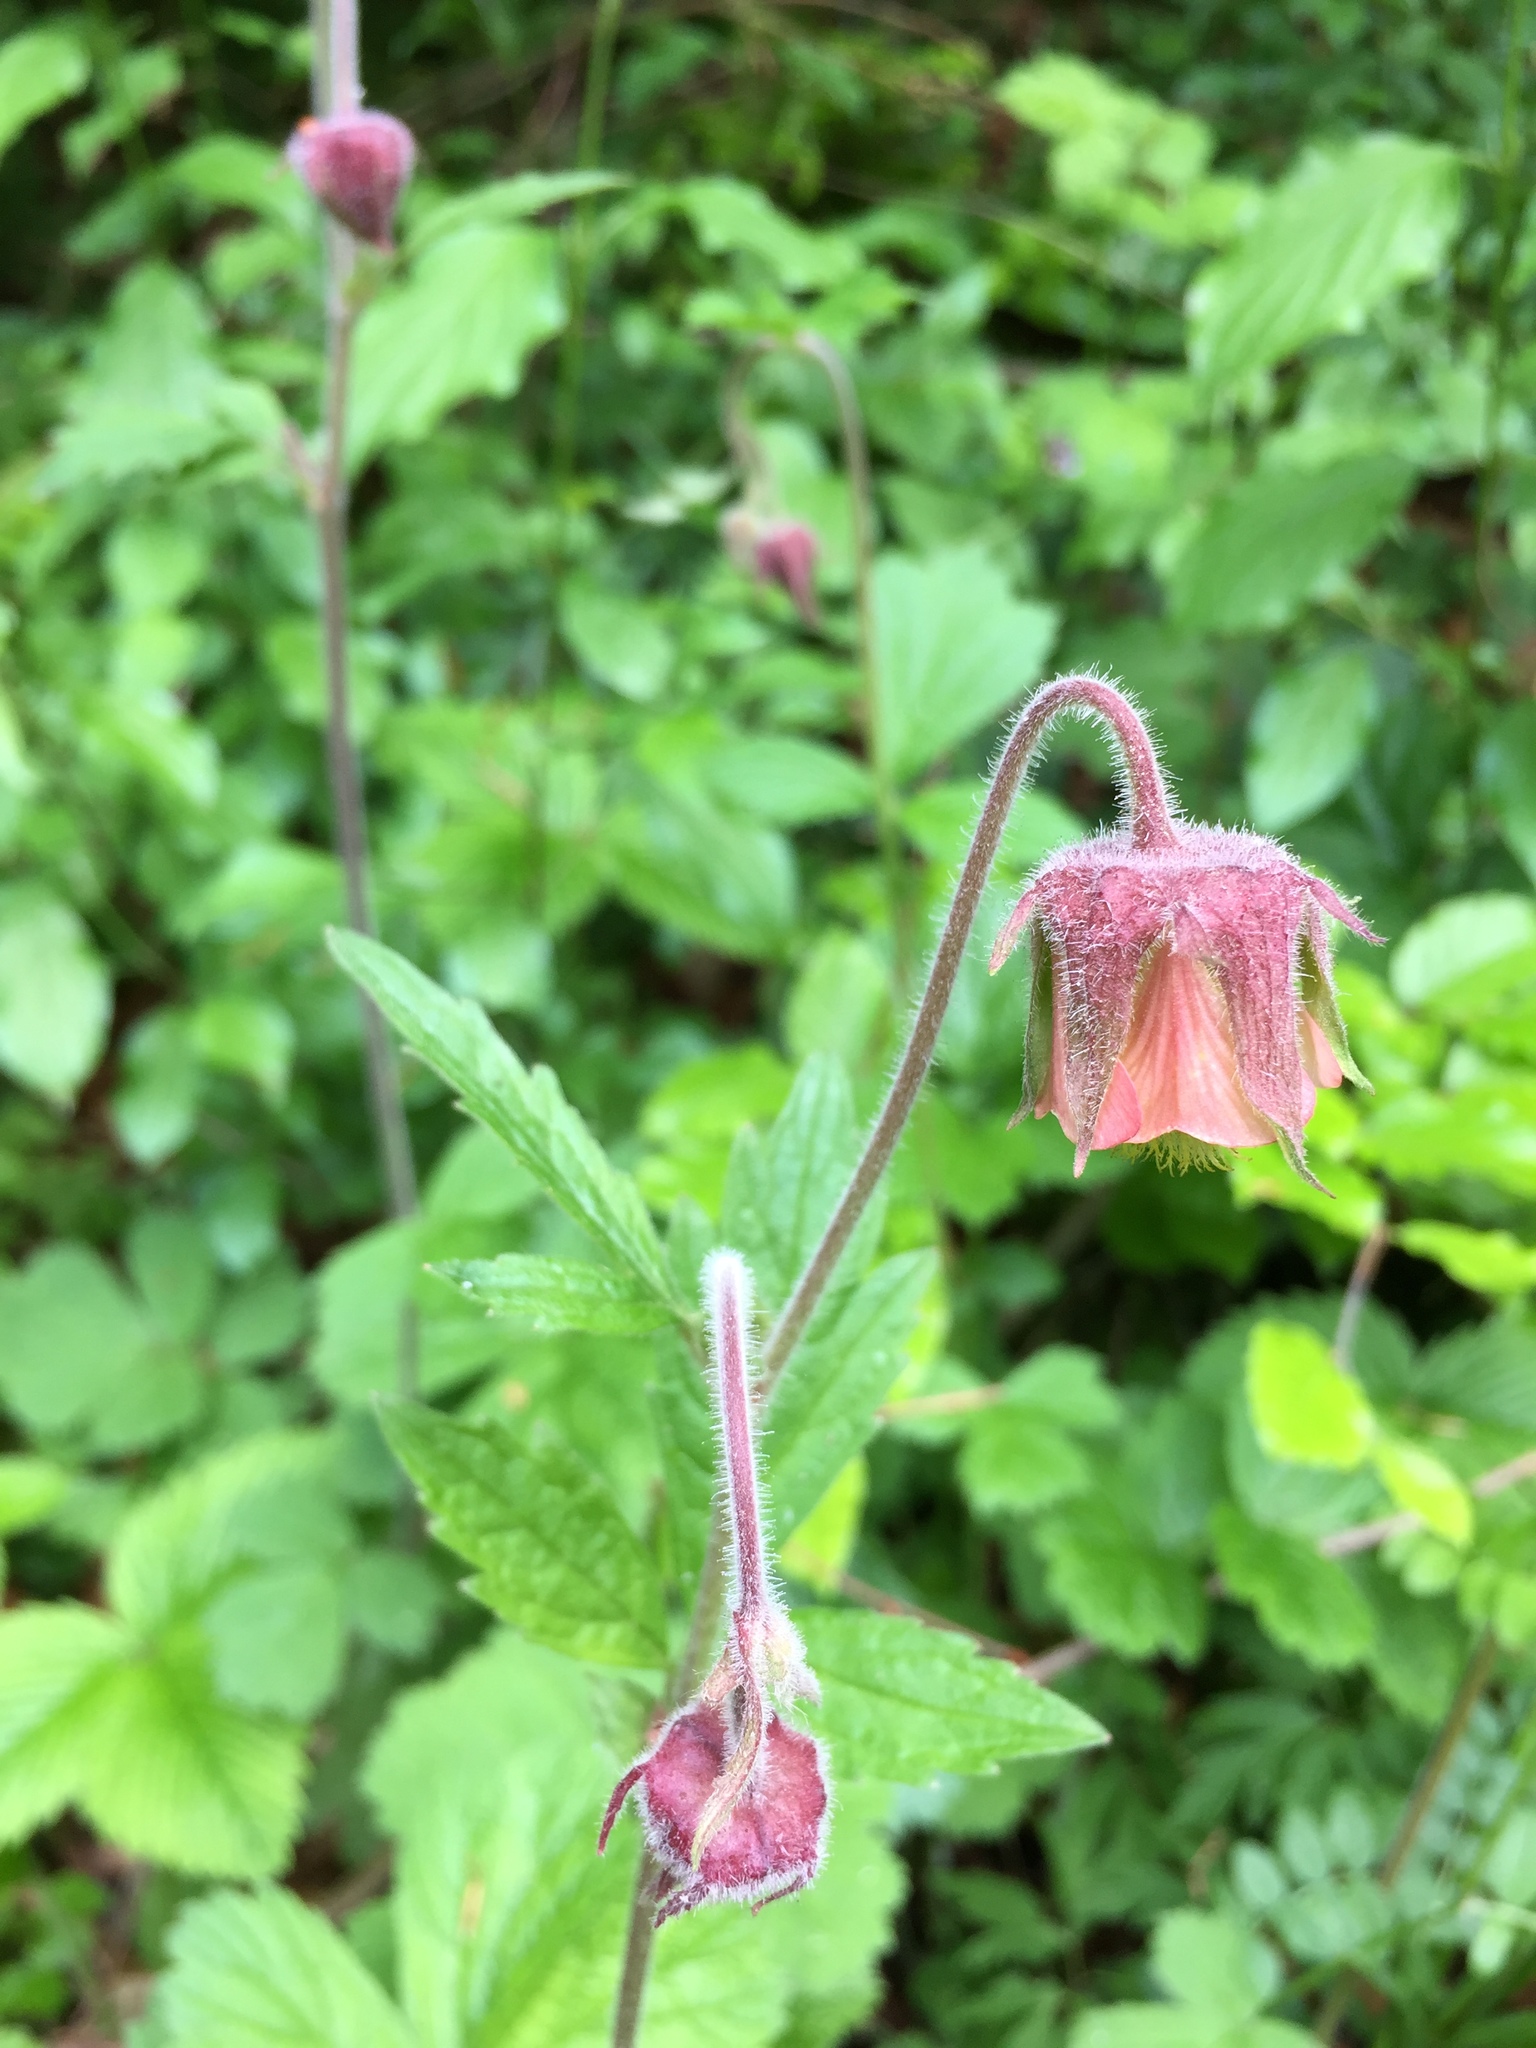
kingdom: Plantae
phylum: Tracheophyta
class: Magnoliopsida
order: Rosales
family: Rosaceae
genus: Geum
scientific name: Geum rivale
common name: Water avens
